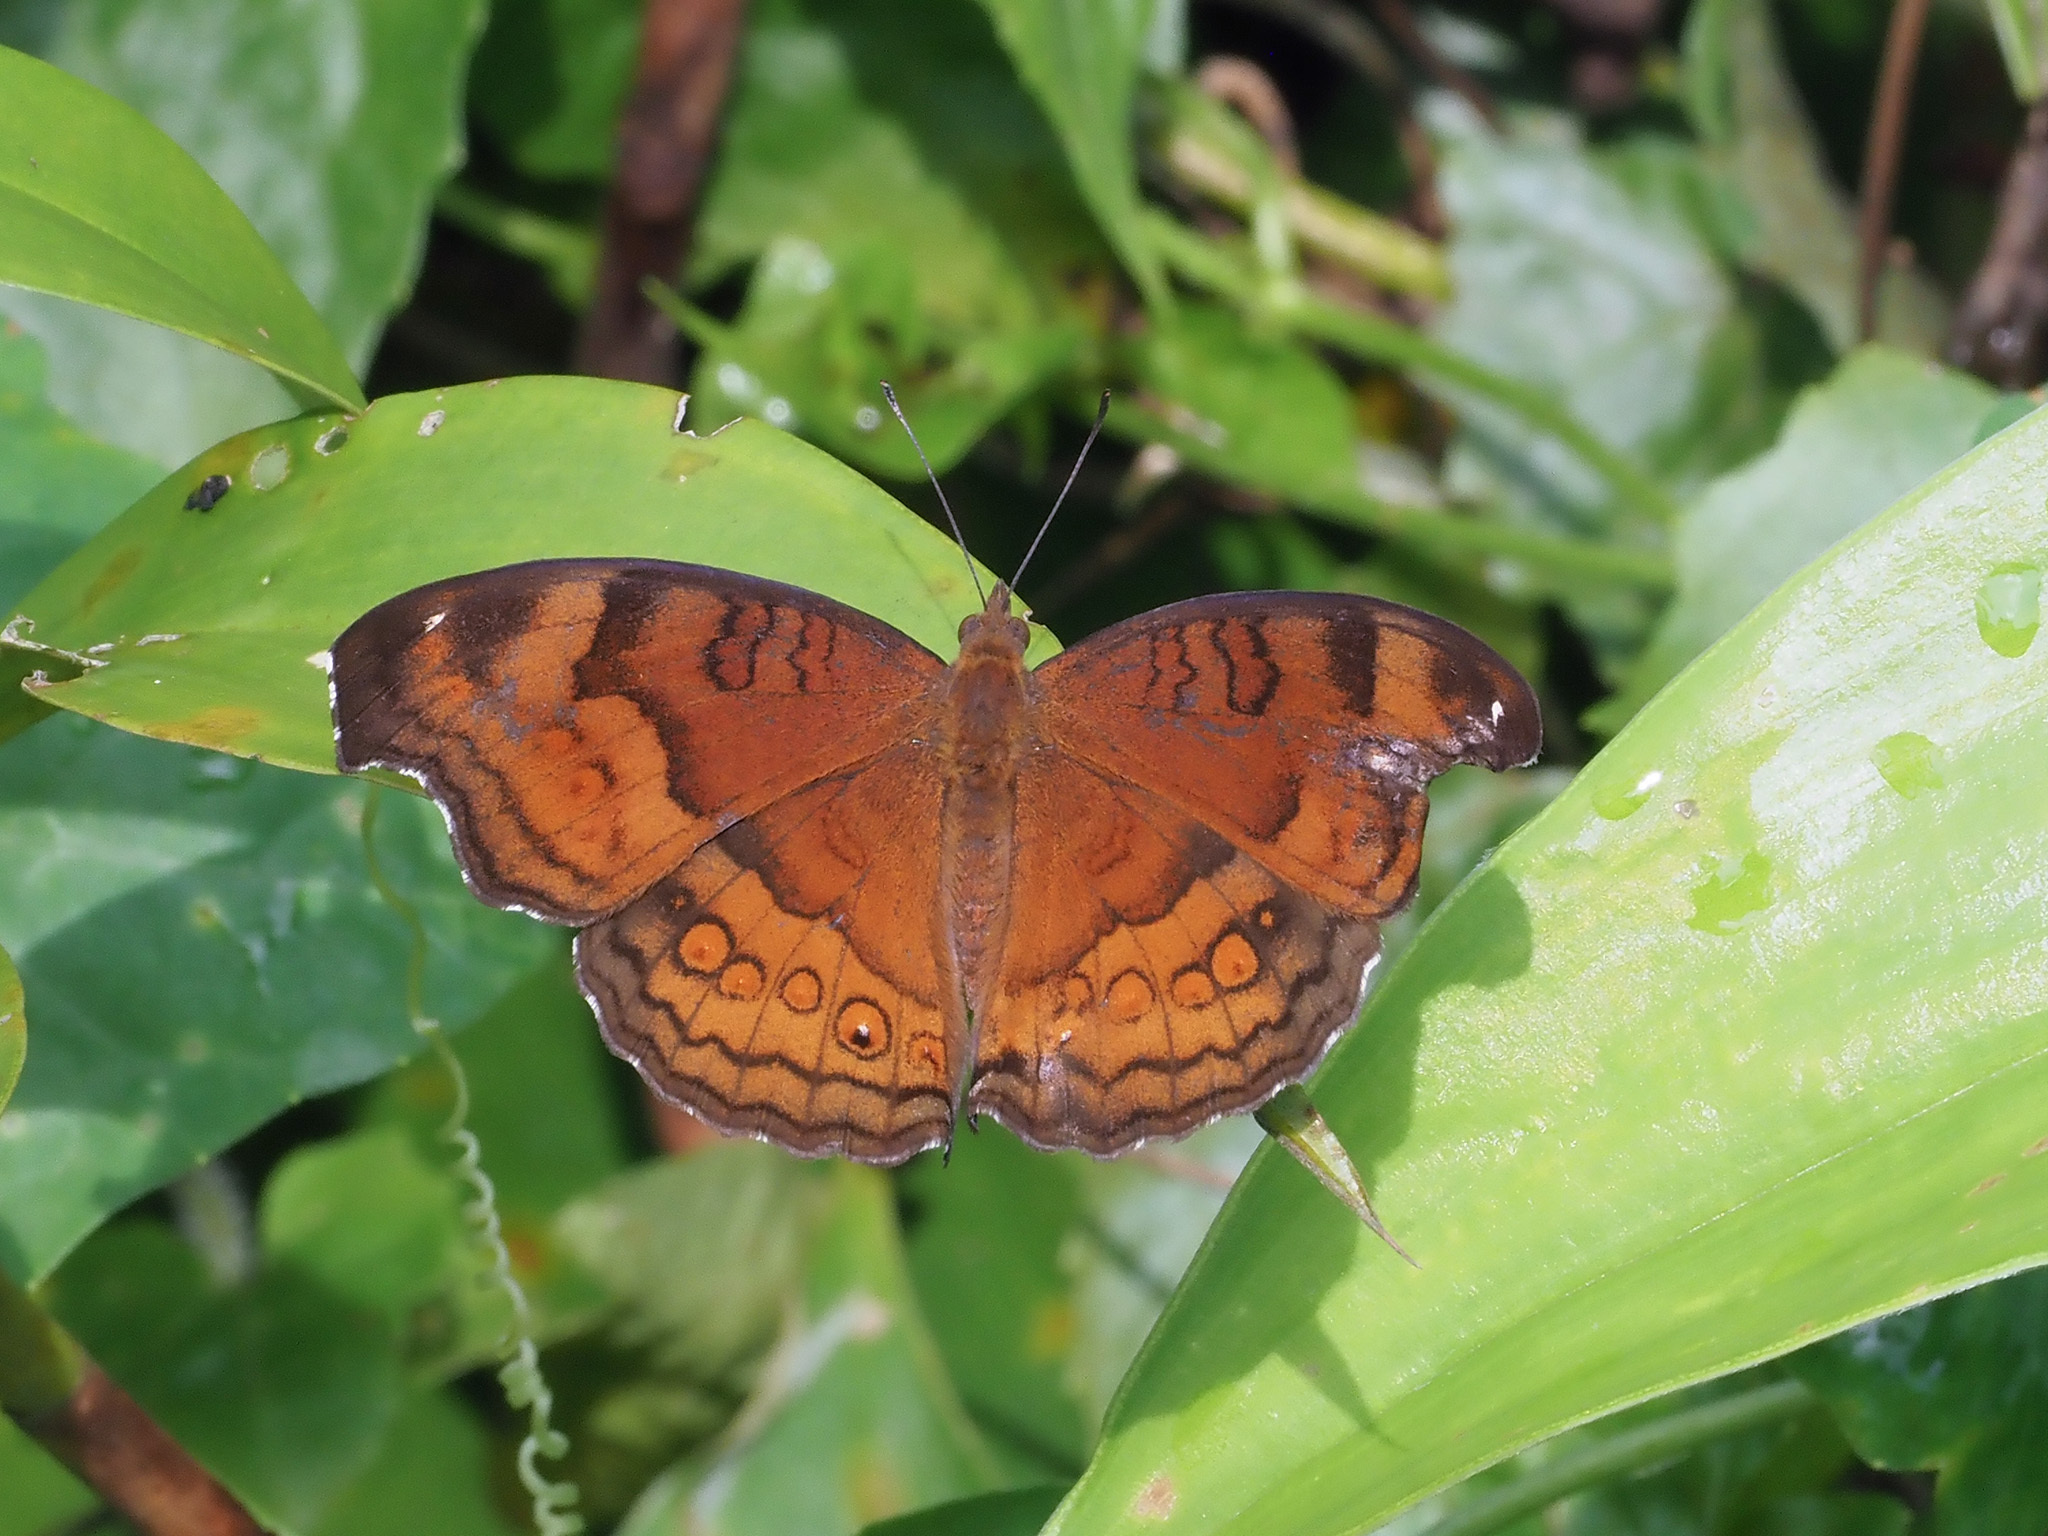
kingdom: Animalia
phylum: Arthropoda
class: Insecta
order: Lepidoptera
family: Nymphalidae
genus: Junonia
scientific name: Junonia hedonia
